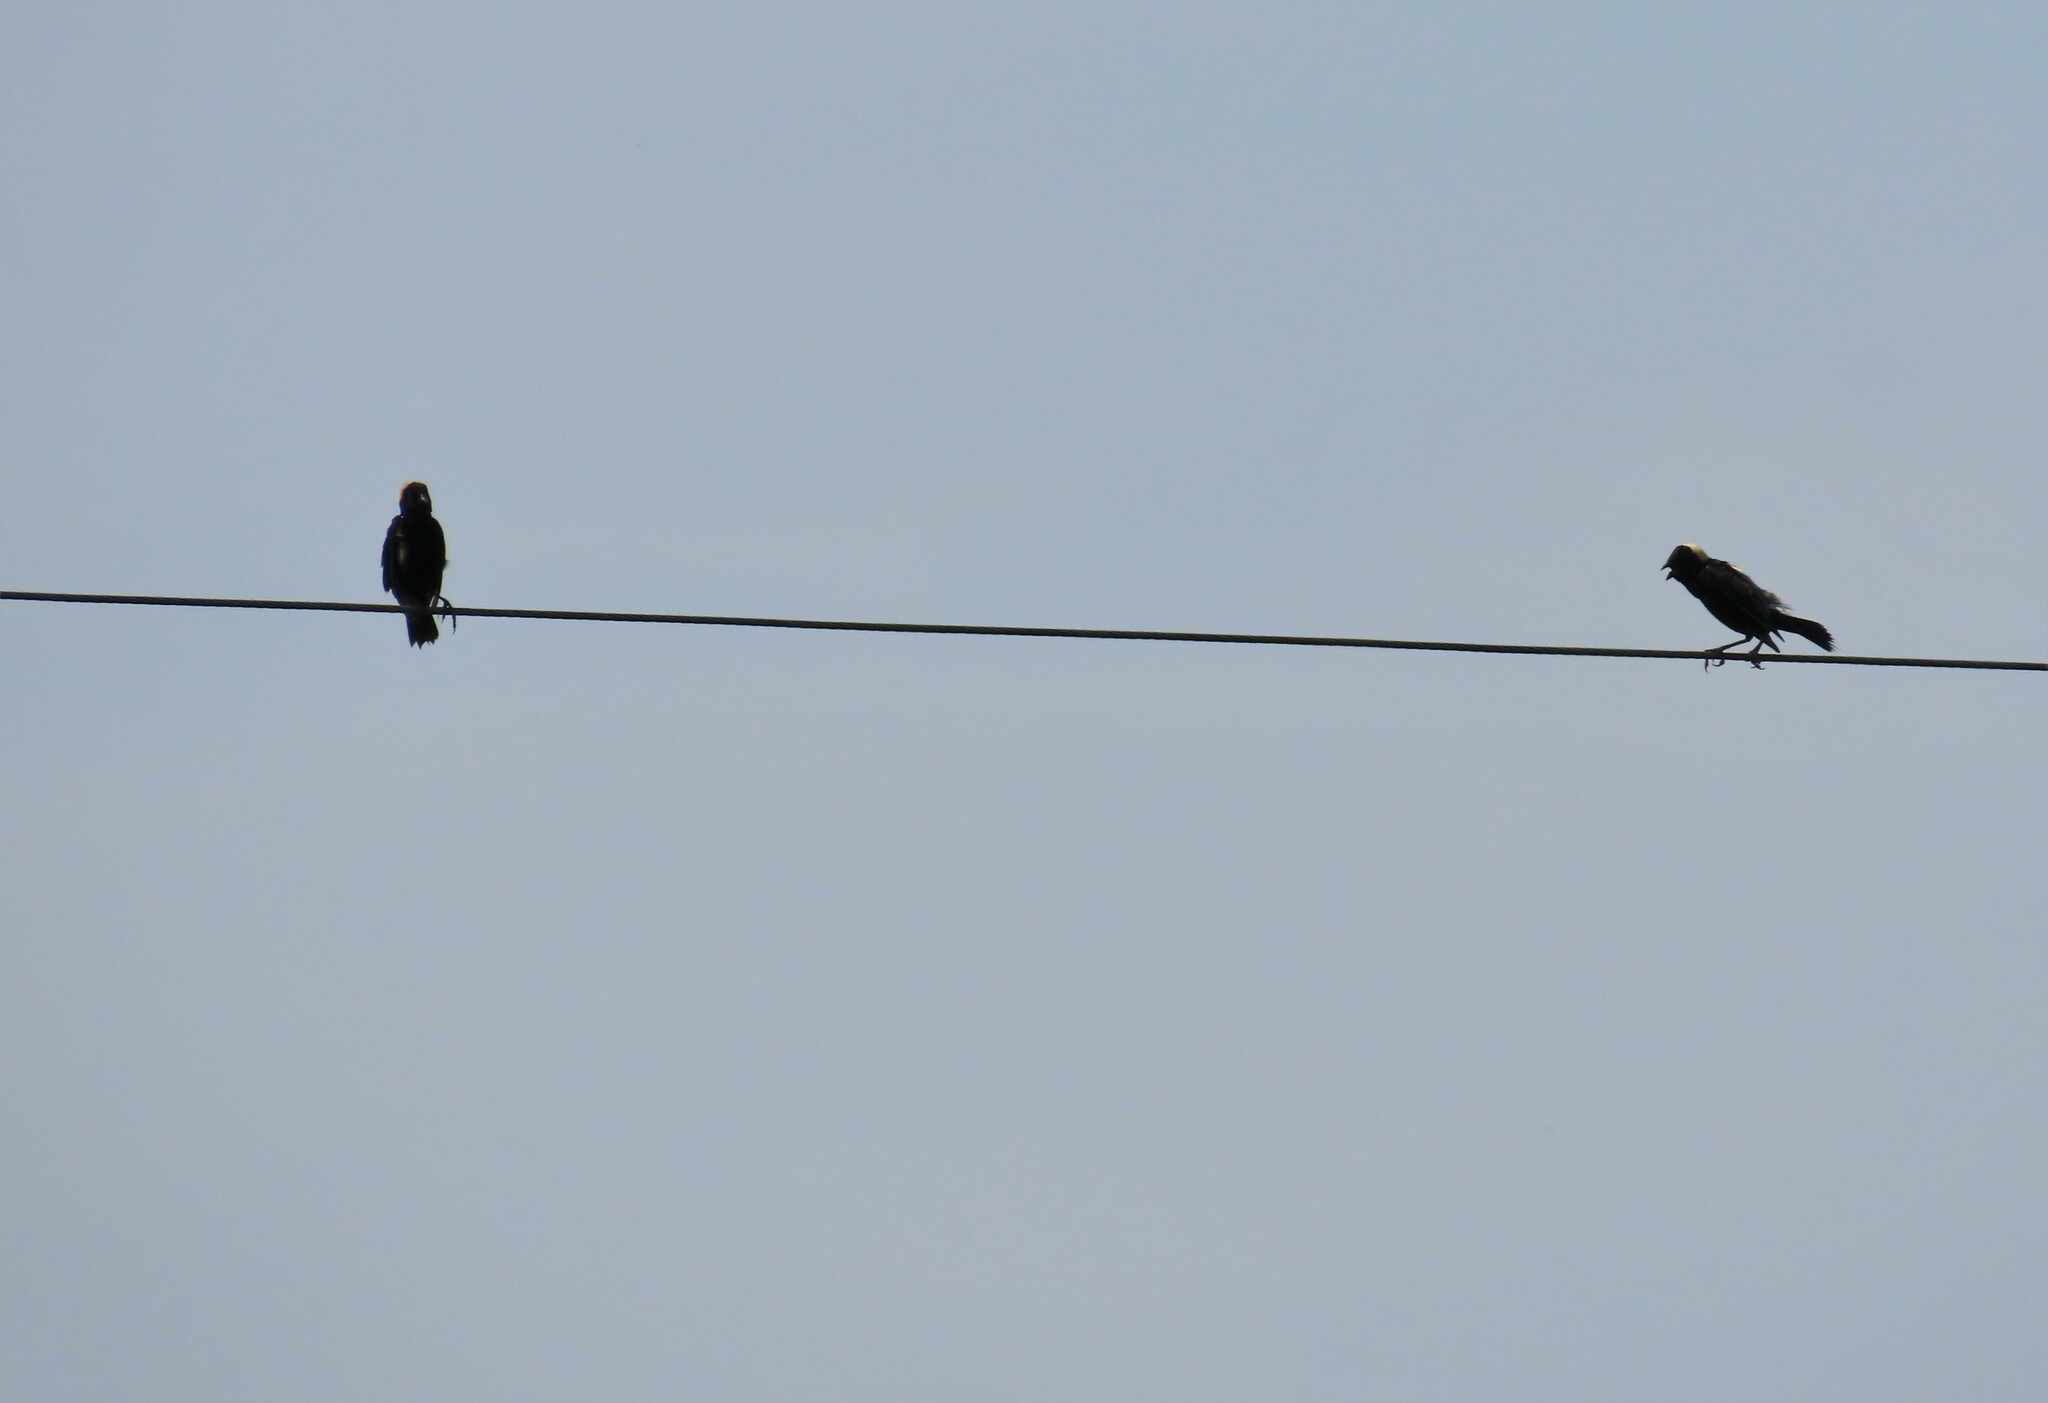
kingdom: Animalia
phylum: Chordata
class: Aves
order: Passeriformes
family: Icteridae
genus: Dolichonyx
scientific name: Dolichonyx oryzivorus
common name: Bobolink
